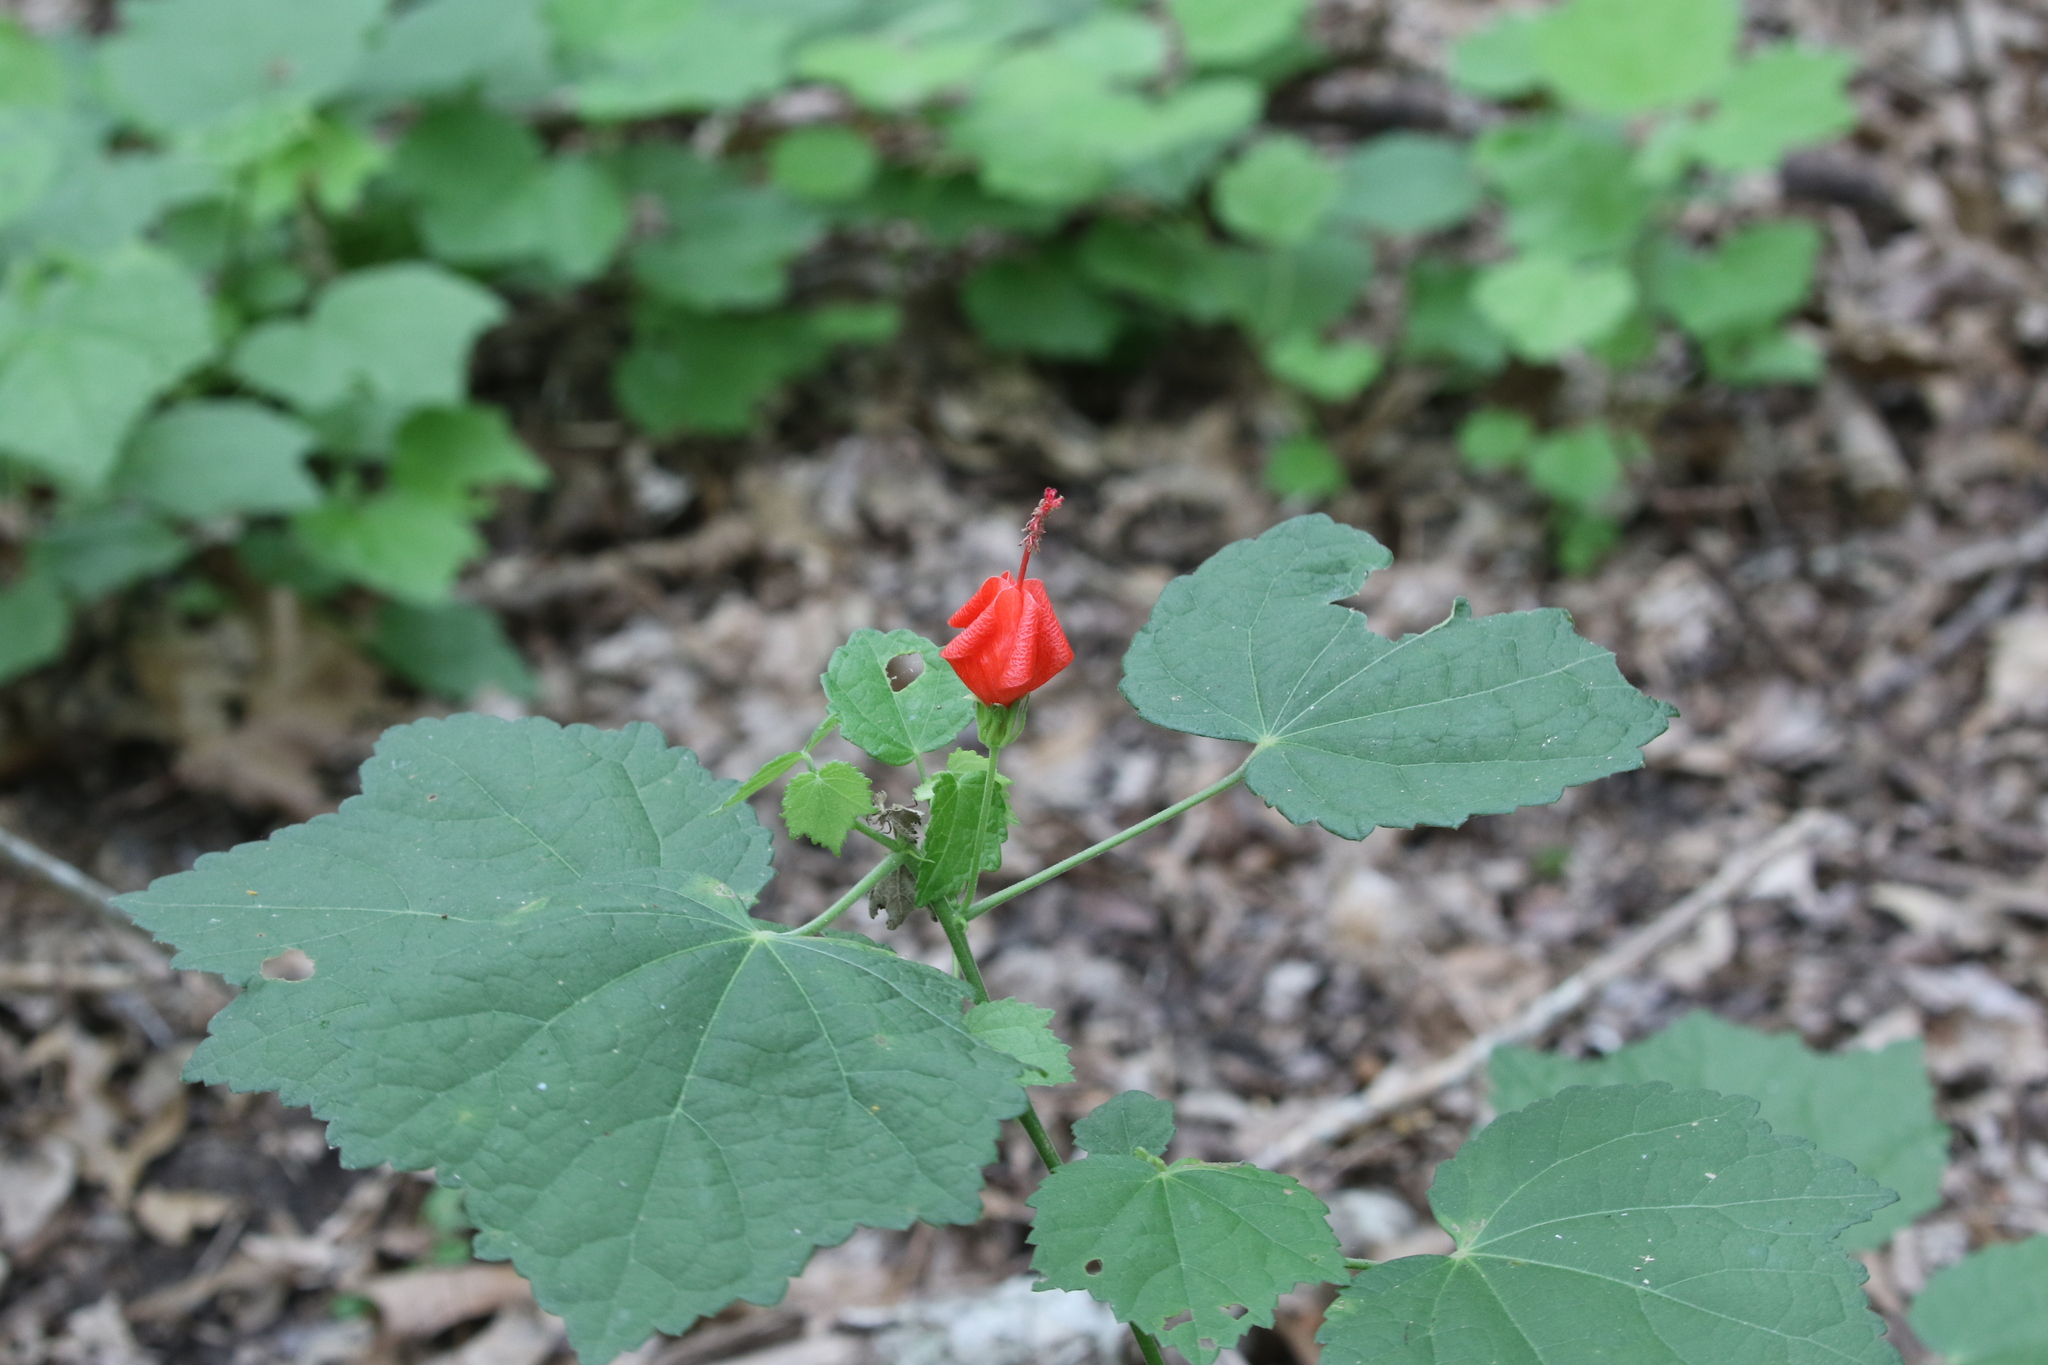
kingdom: Plantae
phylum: Tracheophyta
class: Magnoliopsida
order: Malvales
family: Malvaceae
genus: Malvaviscus
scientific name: Malvaviscus arboreus
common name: Wax mallow
